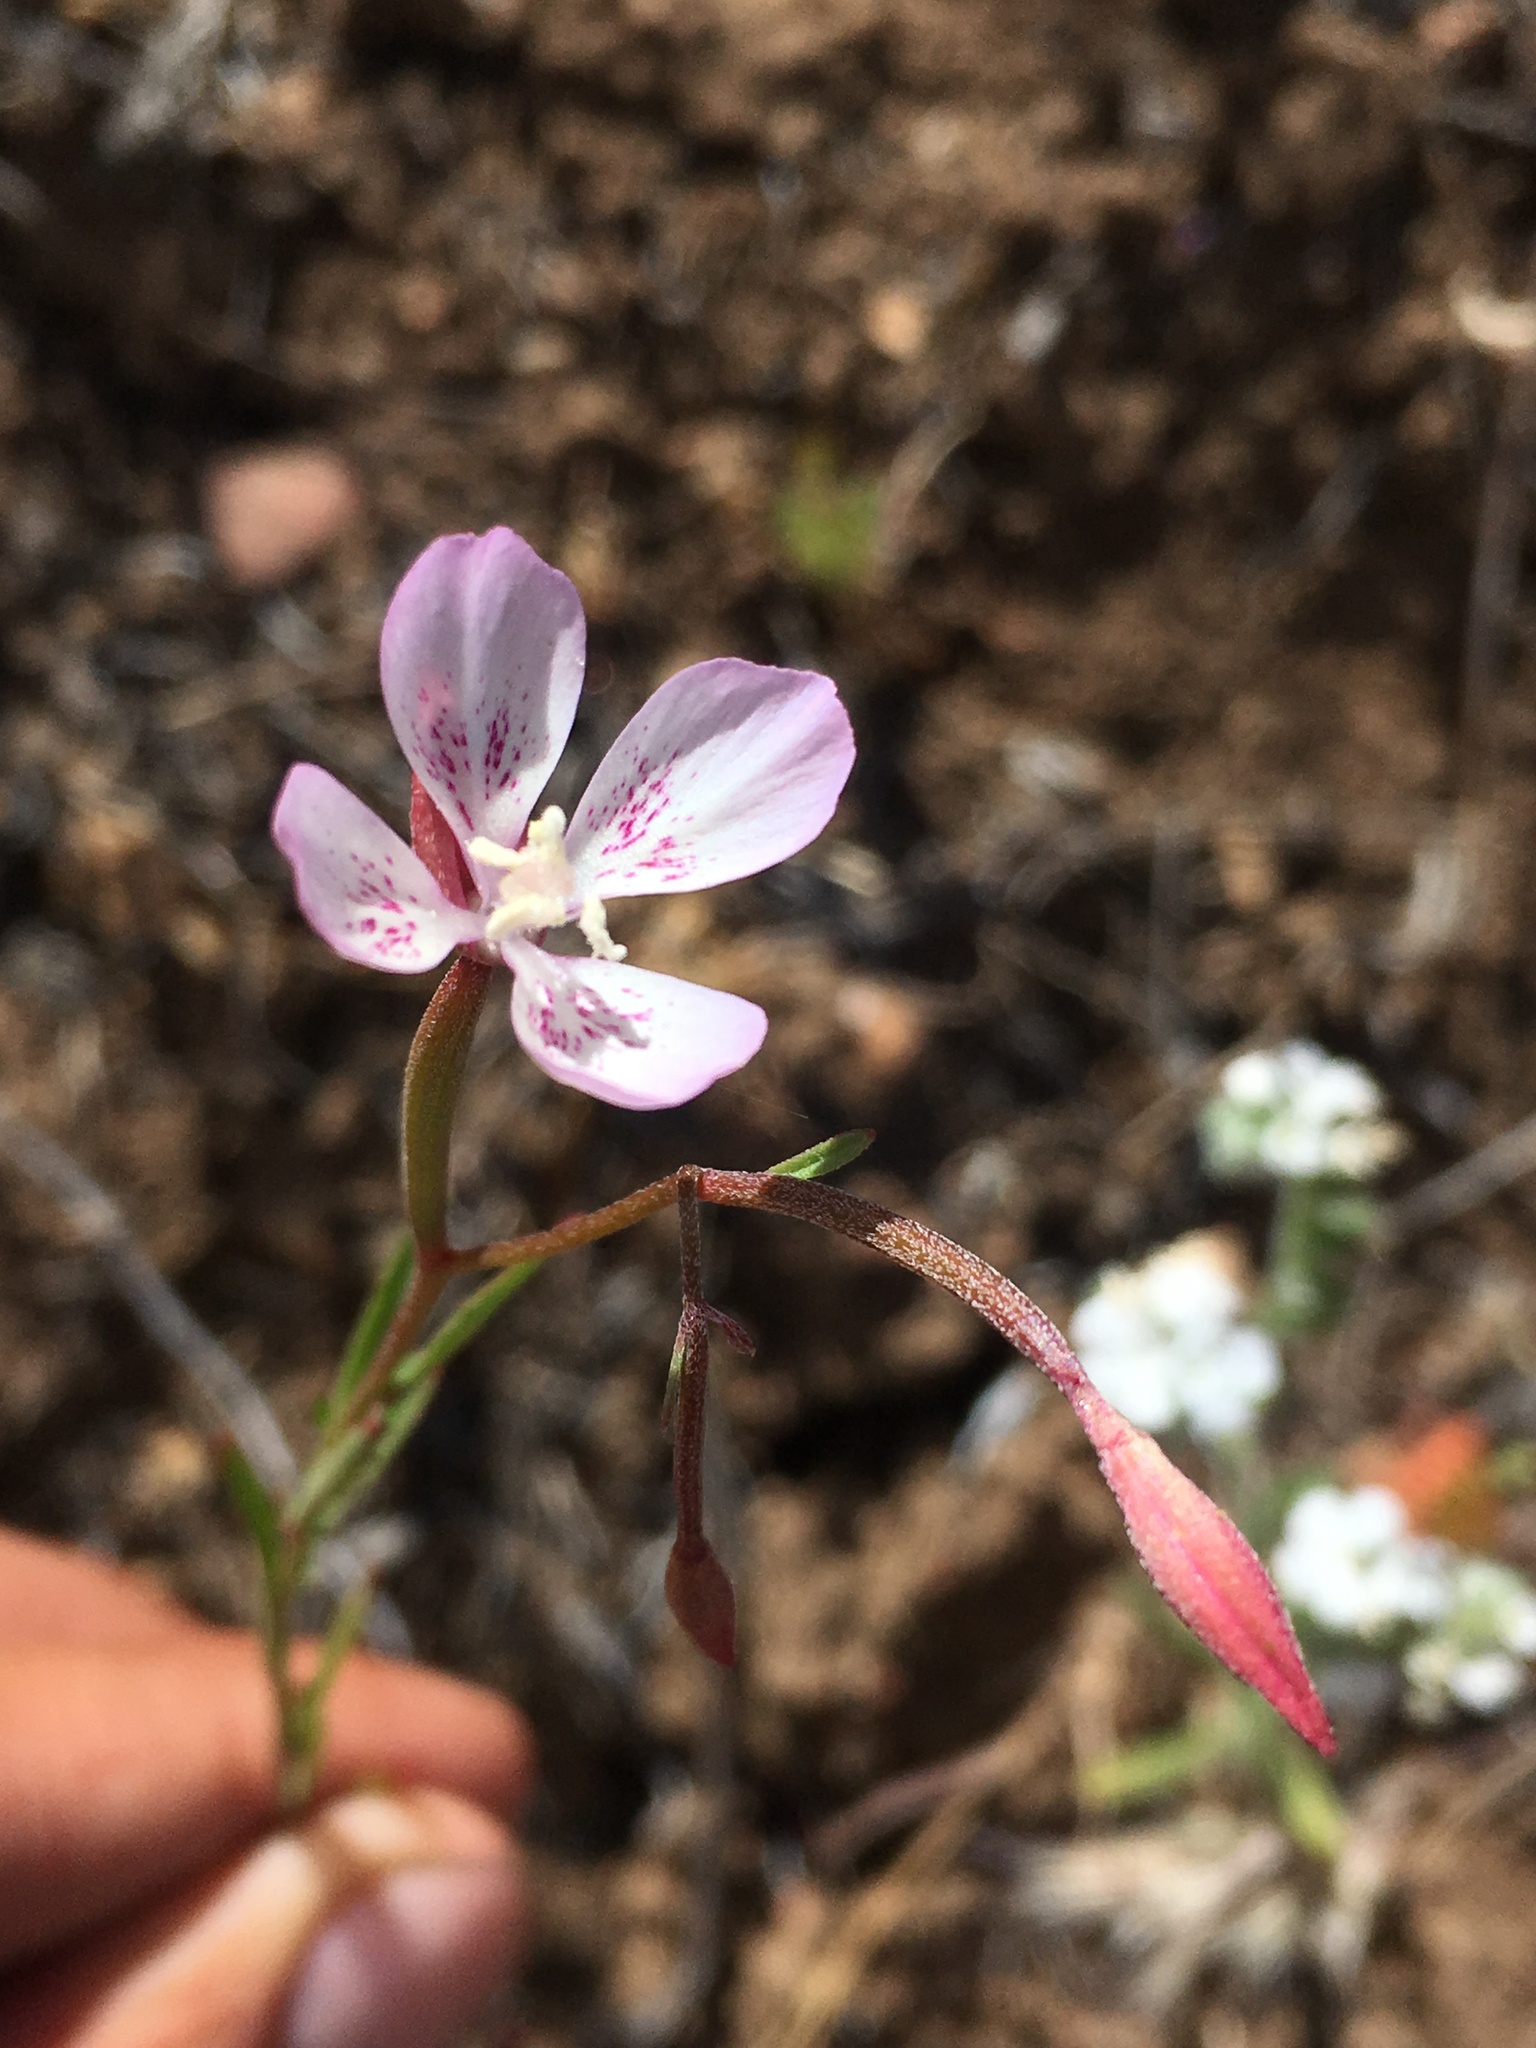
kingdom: Plantae
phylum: Tracheophyta
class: Magnoliopsida
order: Myrtales
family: Onagraceae
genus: Clarkia
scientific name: Clarkia similis
